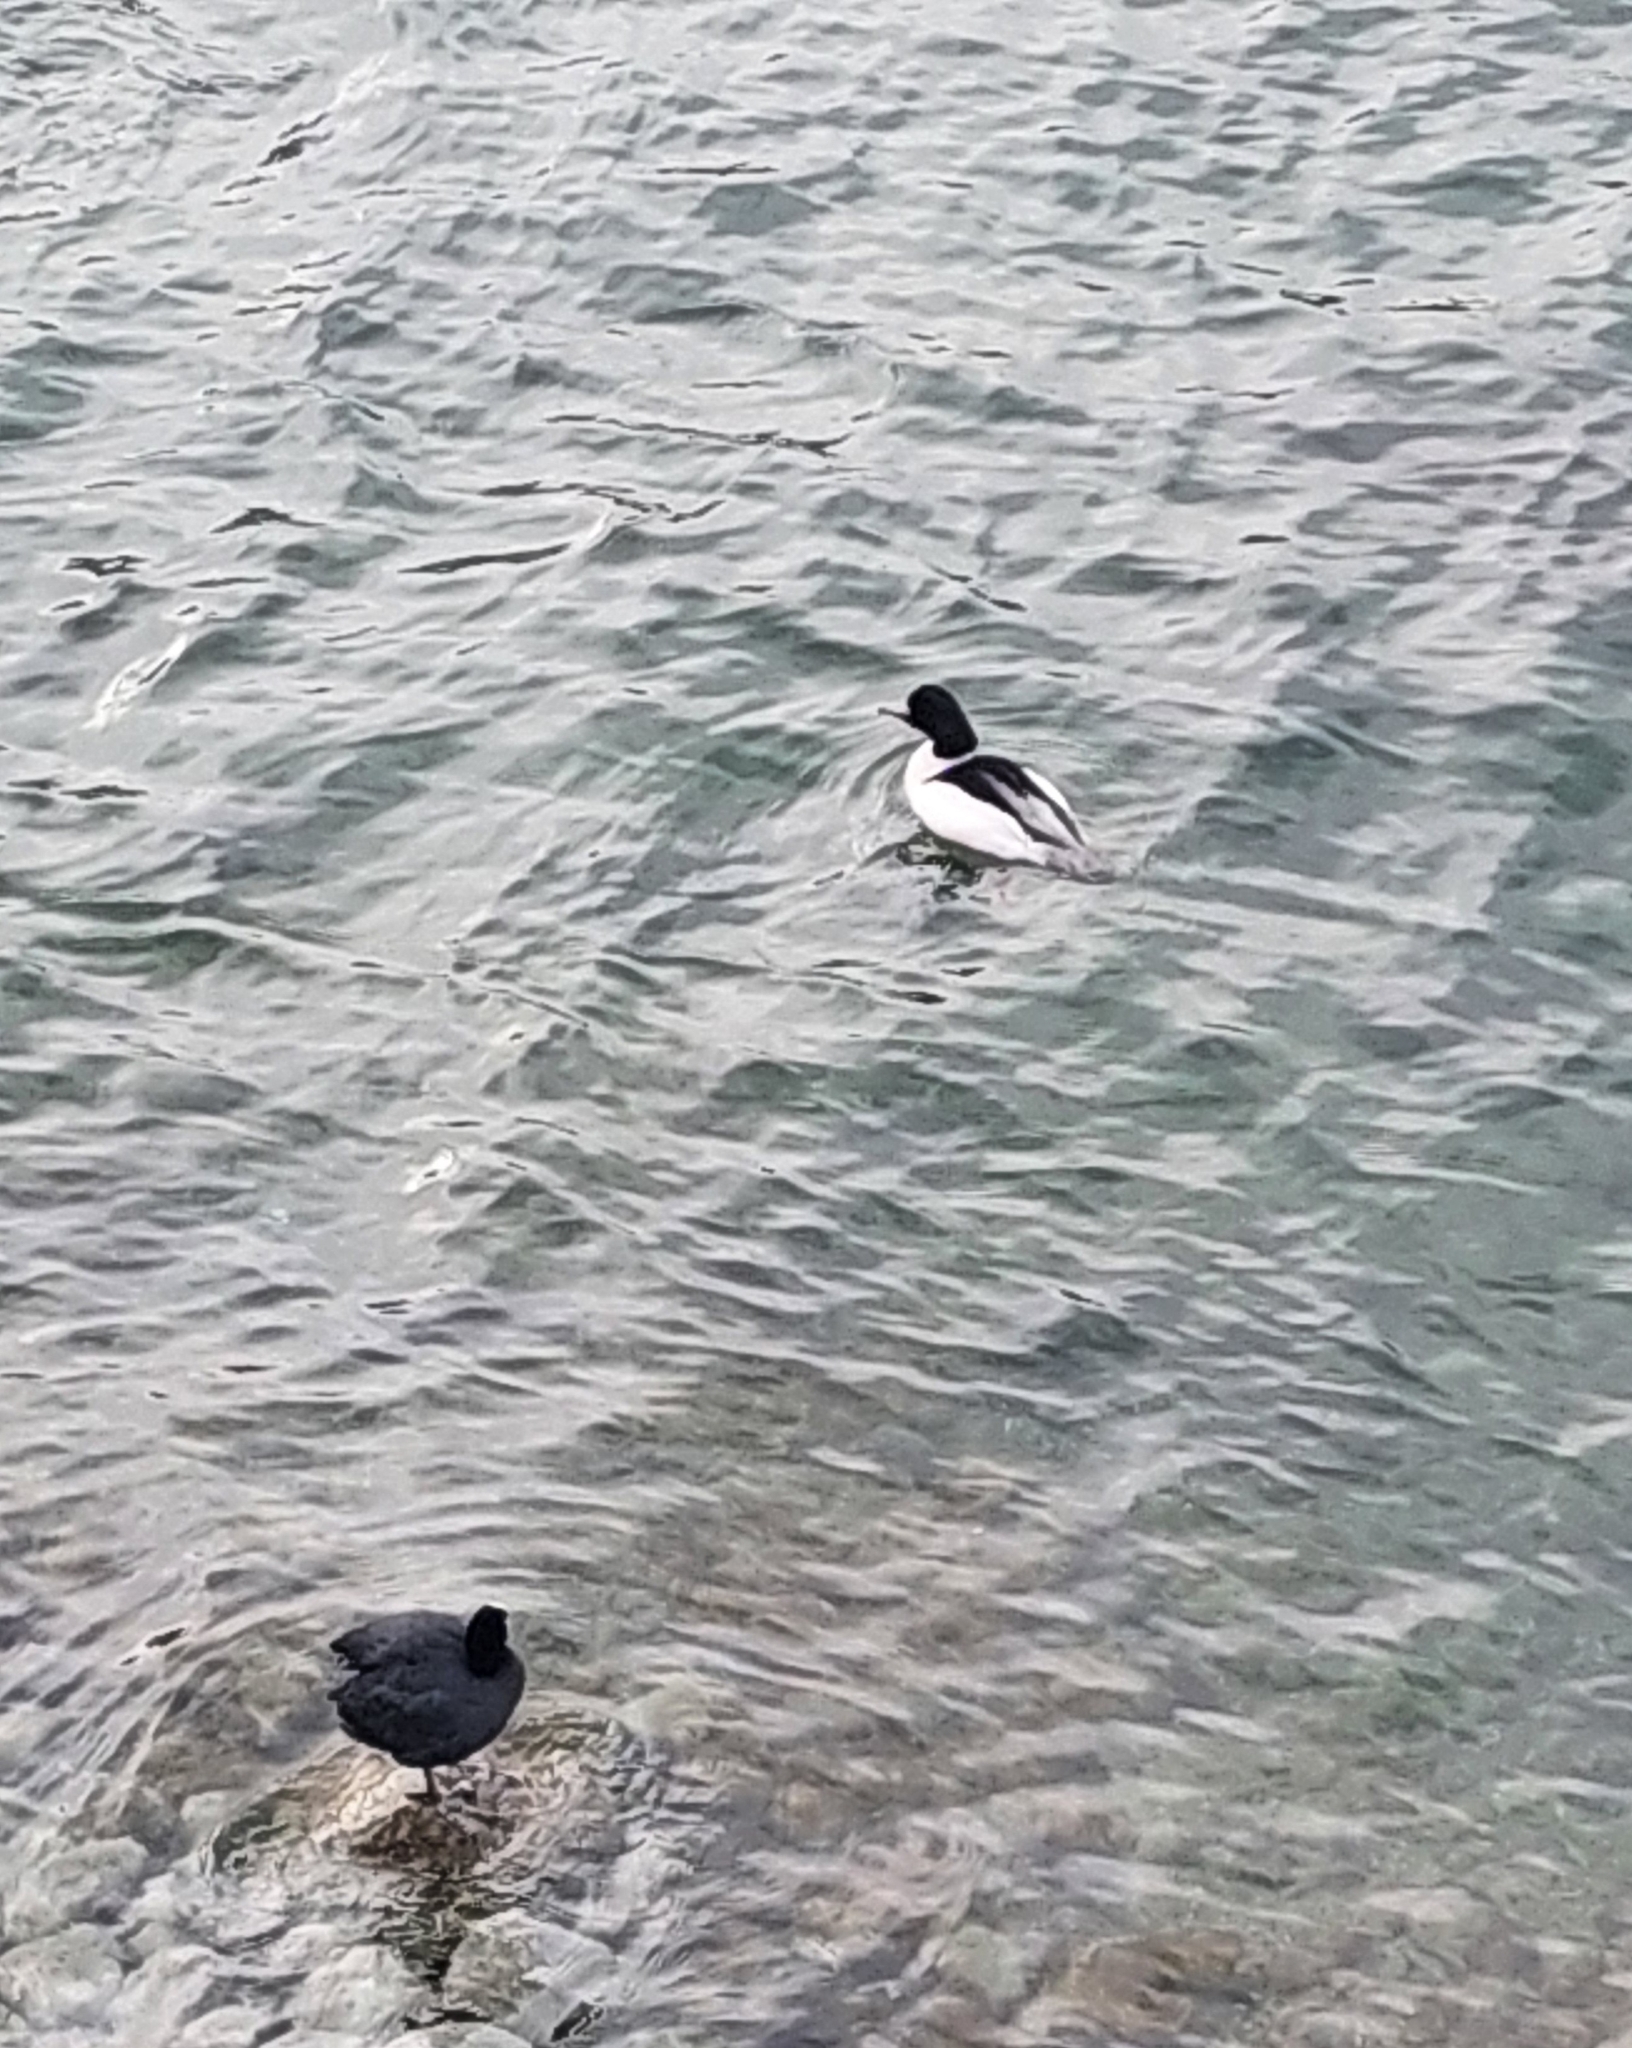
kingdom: Animalia
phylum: Chordata
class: Aves
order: Anseriformes
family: Anatidae
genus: Mergus
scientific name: Mergus merganser
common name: Common merganser
